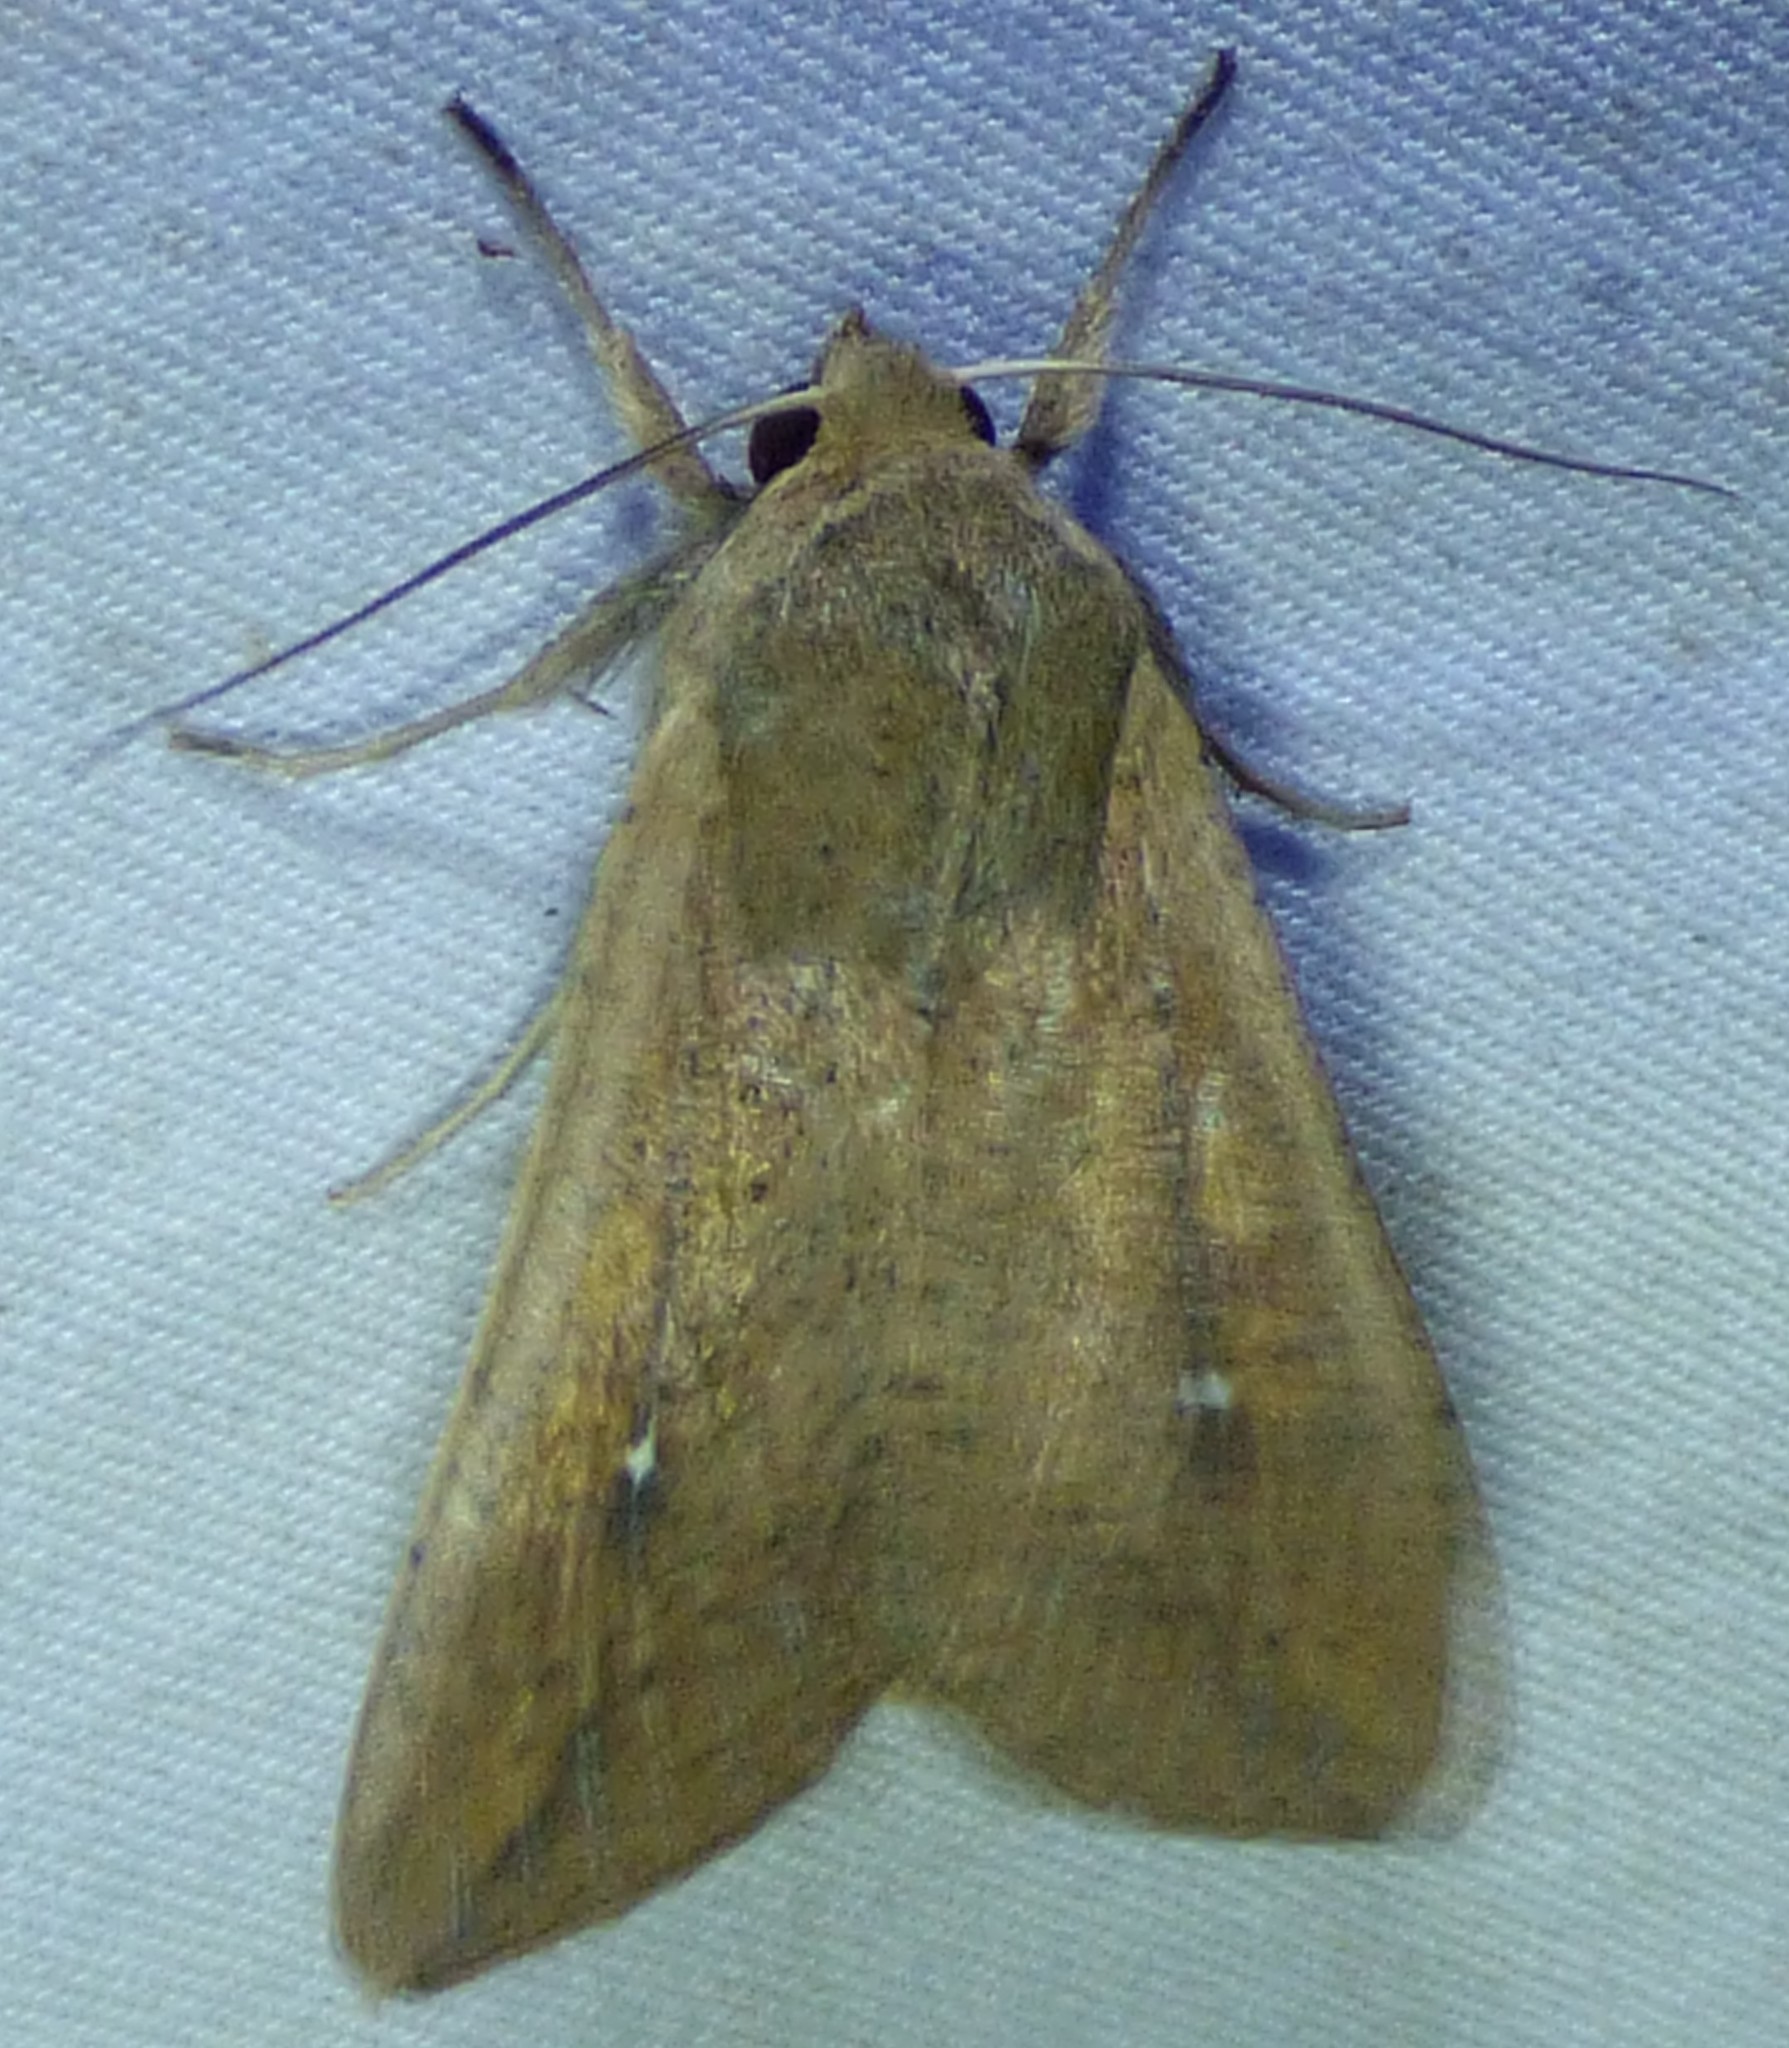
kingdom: Animalia
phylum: Arthropoda
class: Insecta
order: Lepidoptera
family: Noctuidae
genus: Mythimna
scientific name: Mythimna unipuncta
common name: White-speck
